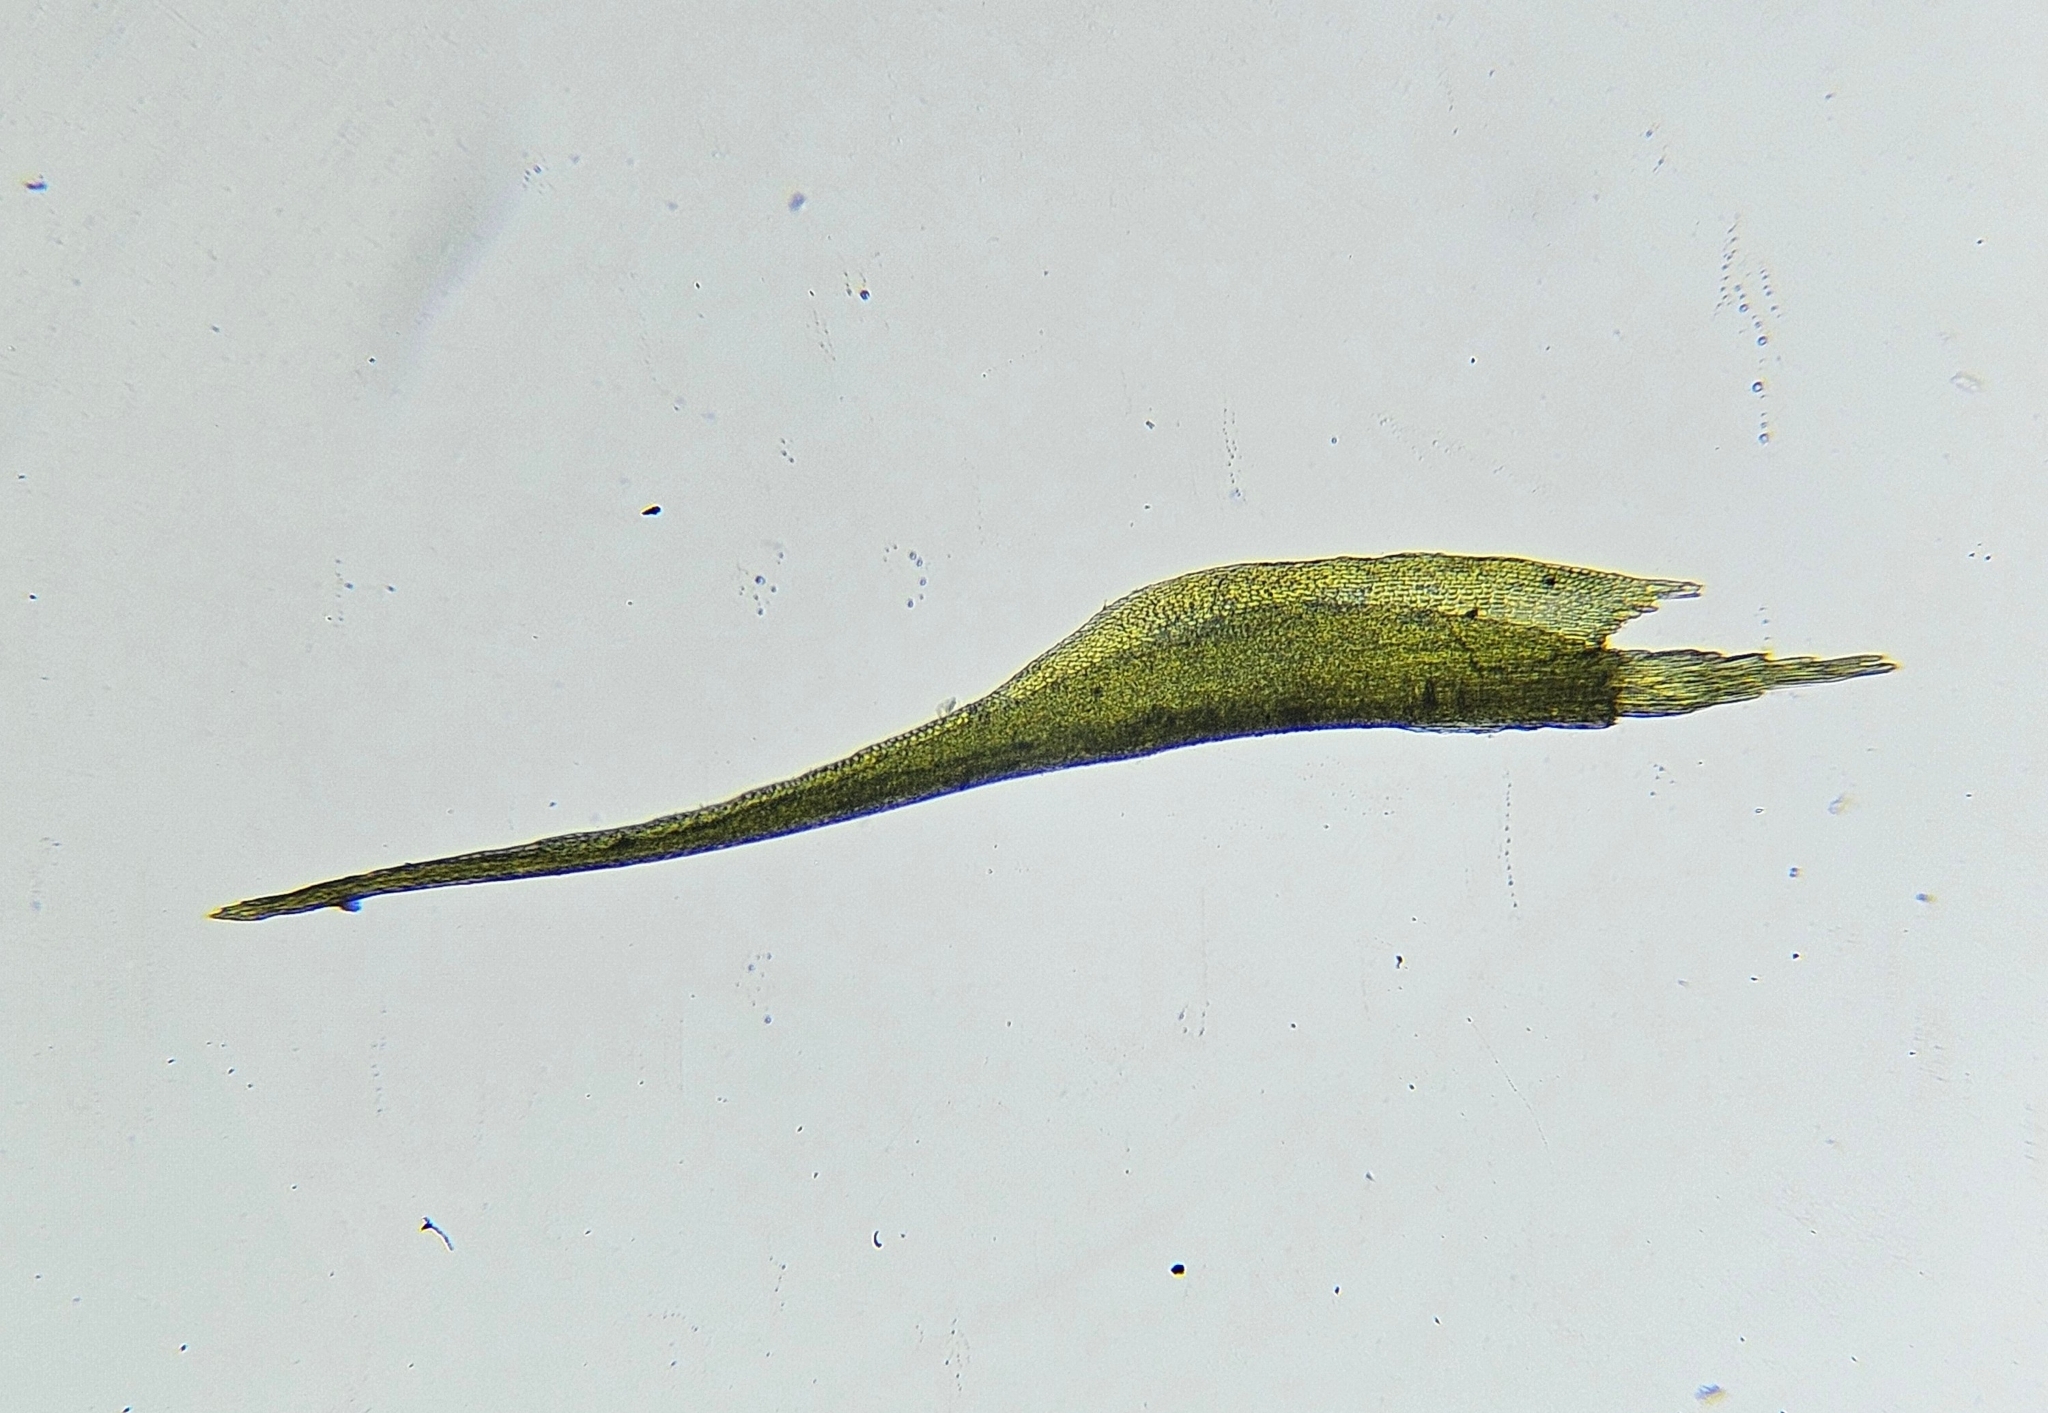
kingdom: Plantae
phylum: Bryophyta
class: Bryopsida
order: Scouleriales
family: Flexitrichaceae
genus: Flexitrichum
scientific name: Flexitrichum flexicaule
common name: Bendy ditrichum
